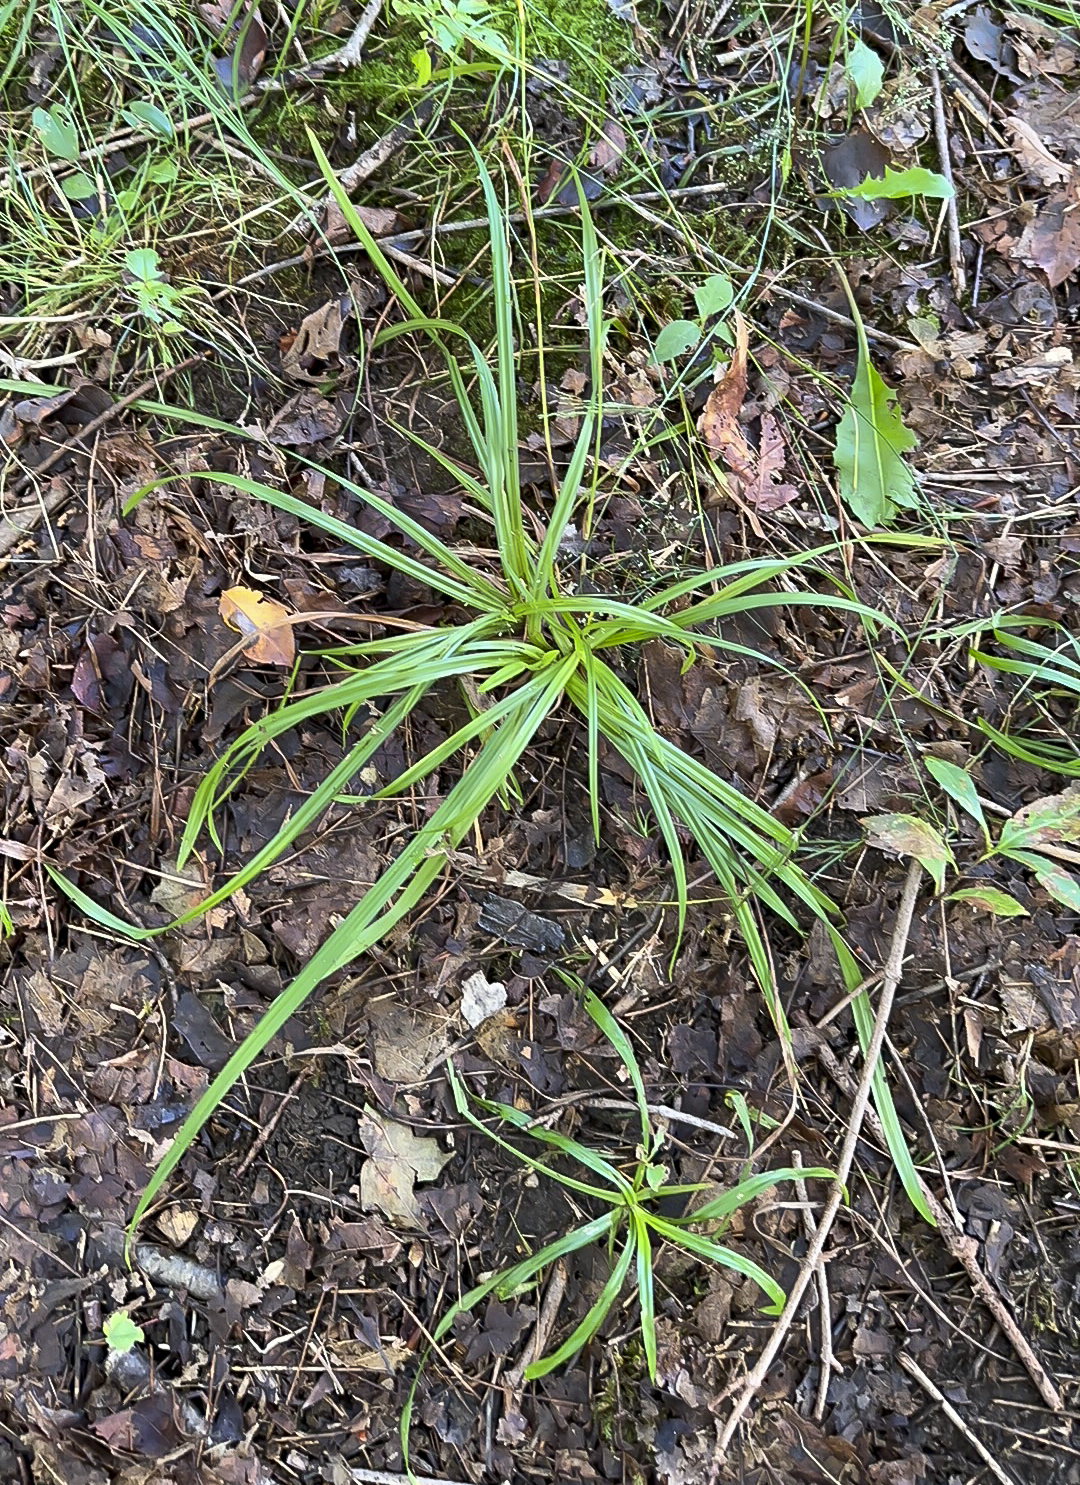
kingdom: Plantae
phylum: Tracheophyta
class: Liliopsida
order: Poales
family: Cyperaceae
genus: Carex
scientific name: Carex
